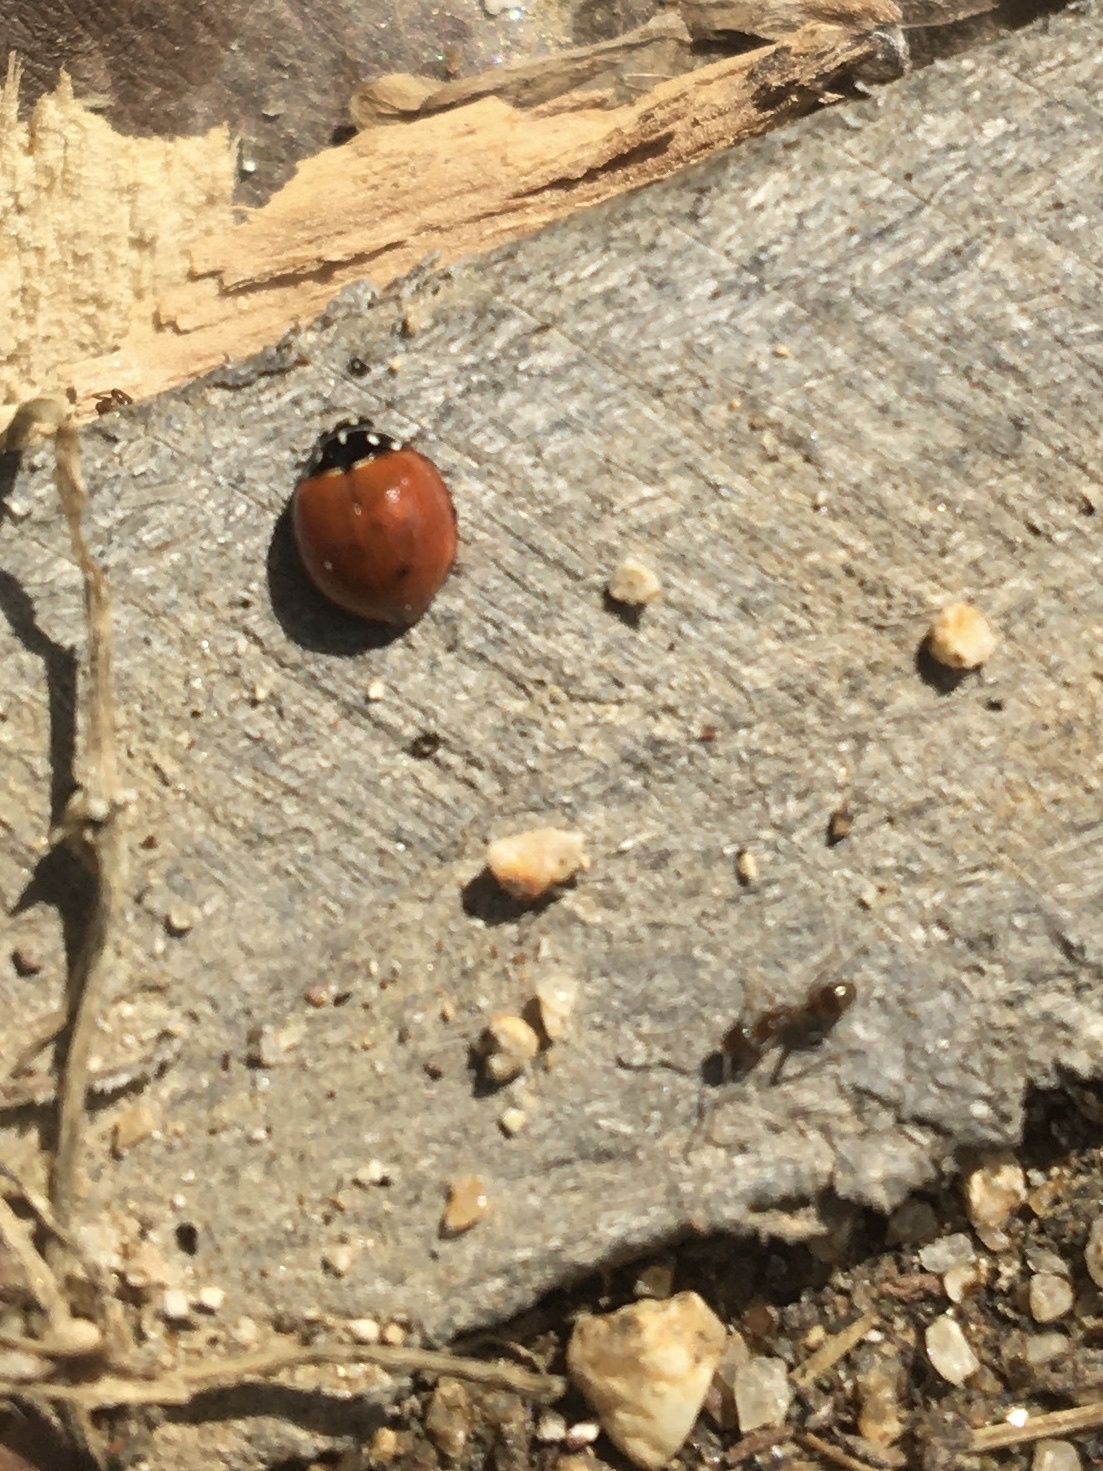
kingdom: Animalia
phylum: Arthropoda
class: Insecta
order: Coleoptera
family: Coccinellidae
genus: Cycloneda
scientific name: Cycloneda sanguinea
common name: Ladybird beetle
